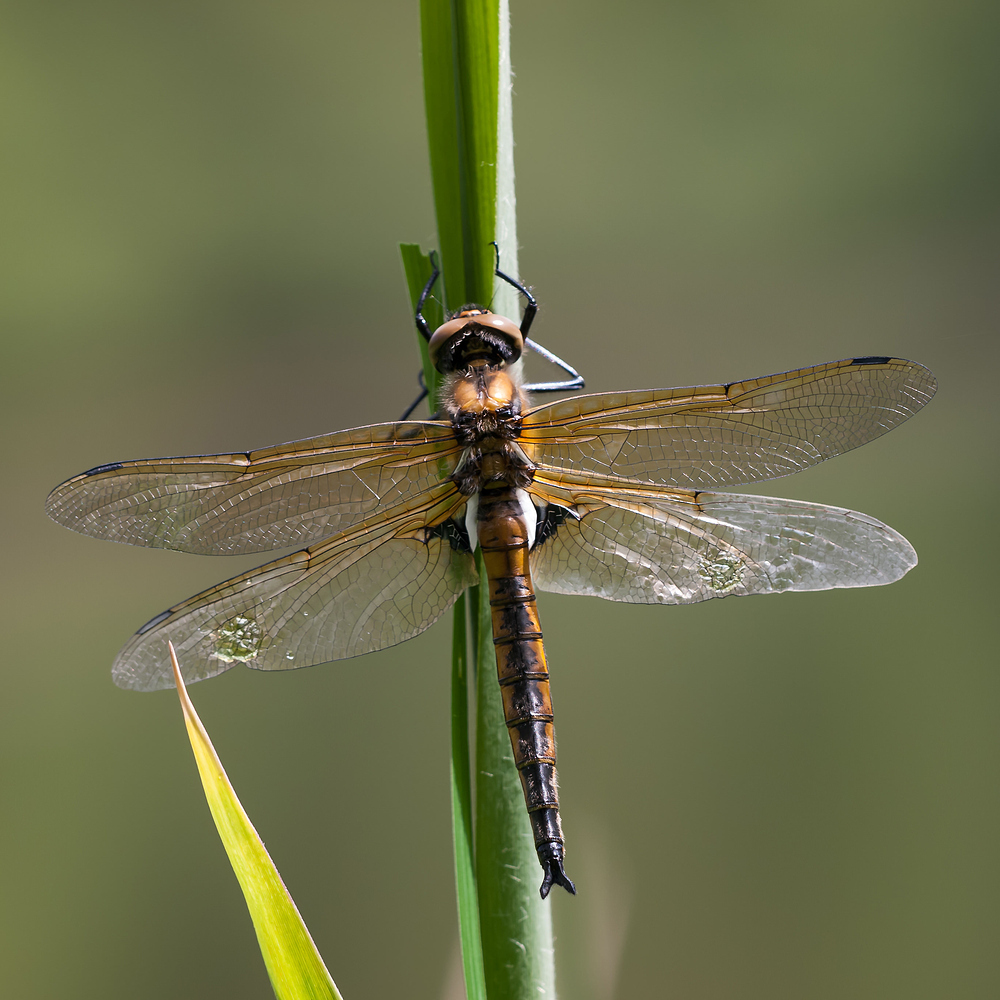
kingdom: Animalia
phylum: Arthropoda
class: Insecta
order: Odonata
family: Corduliidae
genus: Epitheca
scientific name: Epitheca bimaculata
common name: Eurasian baskettail
